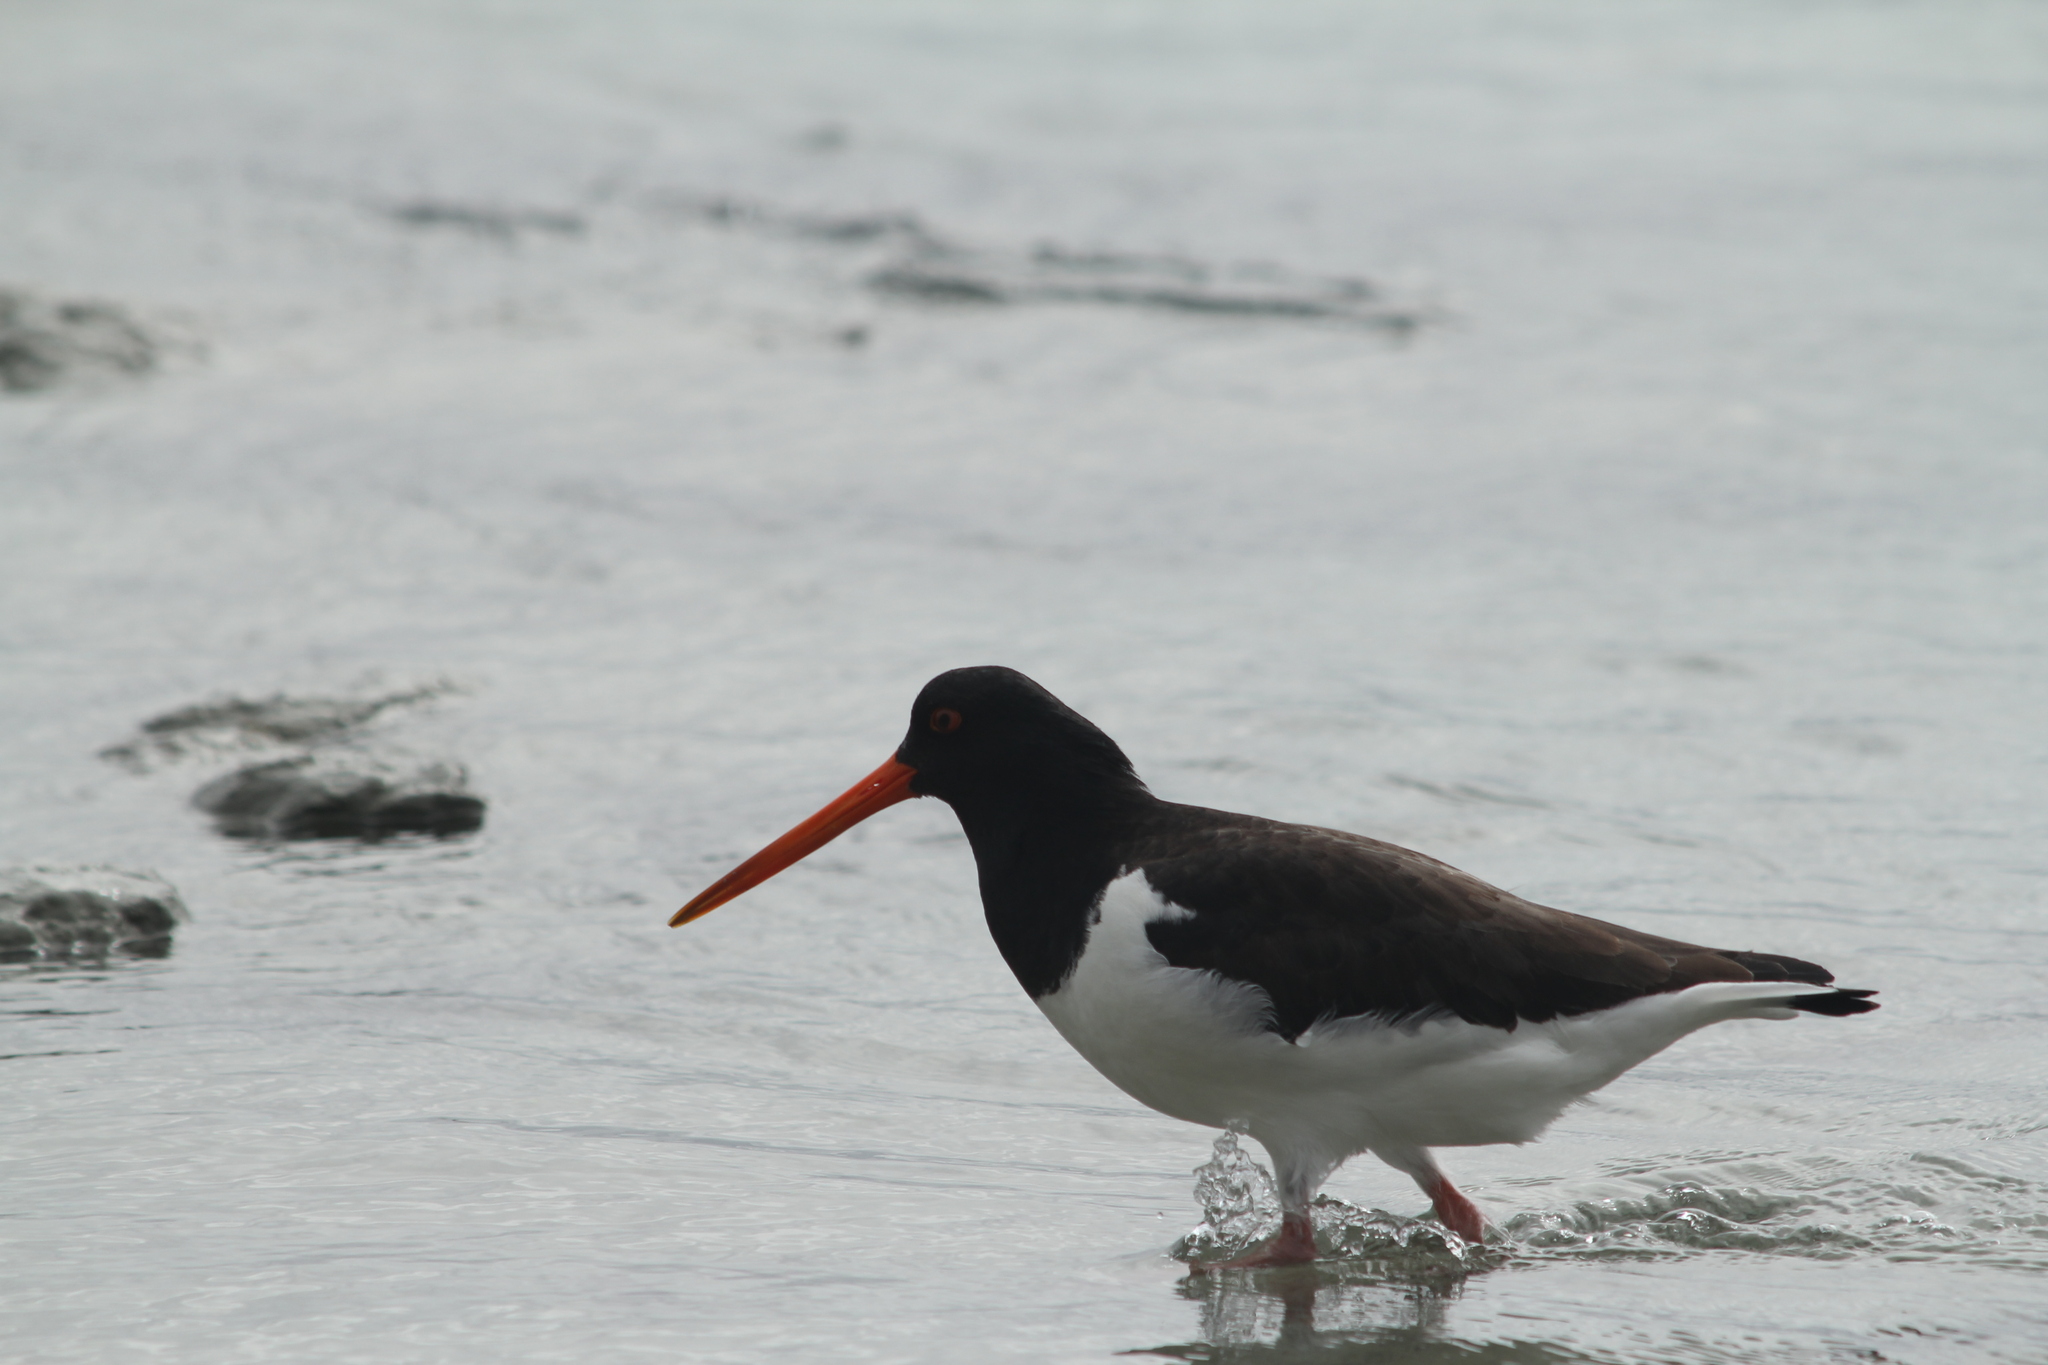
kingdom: Animalia
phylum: Chordata
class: Aves
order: Charadriiformes
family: Haematopodidae
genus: Haematopus
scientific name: Haematopus finschi
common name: South island oystercatcher
